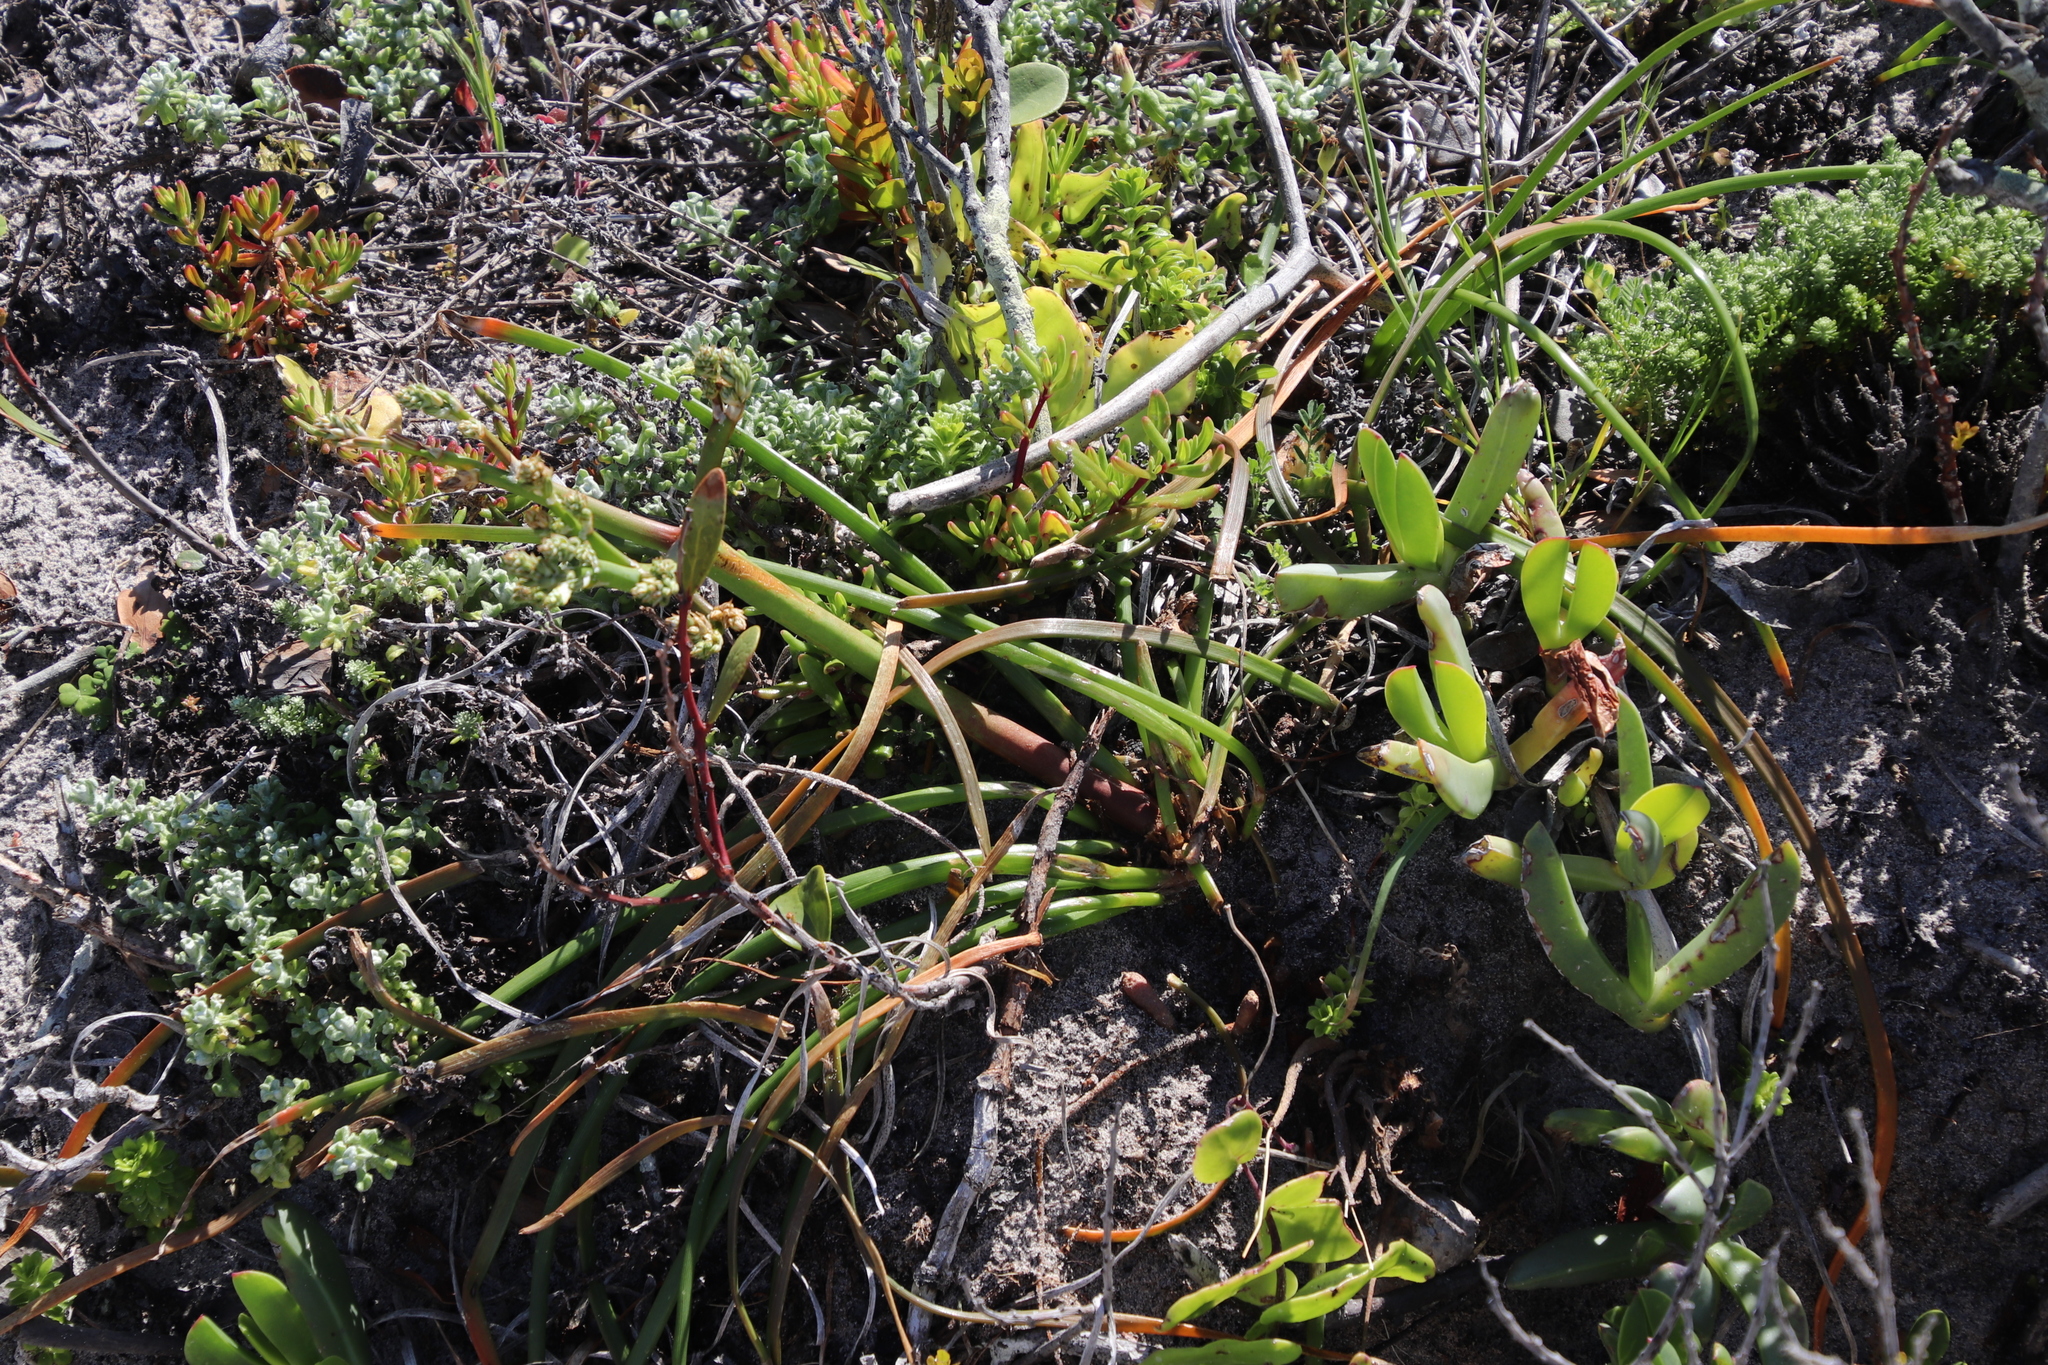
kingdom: Plantae
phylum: Tracheophyta
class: Liliopsida
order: Asparagales
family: Asphodelaceae
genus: Trachyandra
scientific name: Trachyandra divaricata
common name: Dune onionweed
